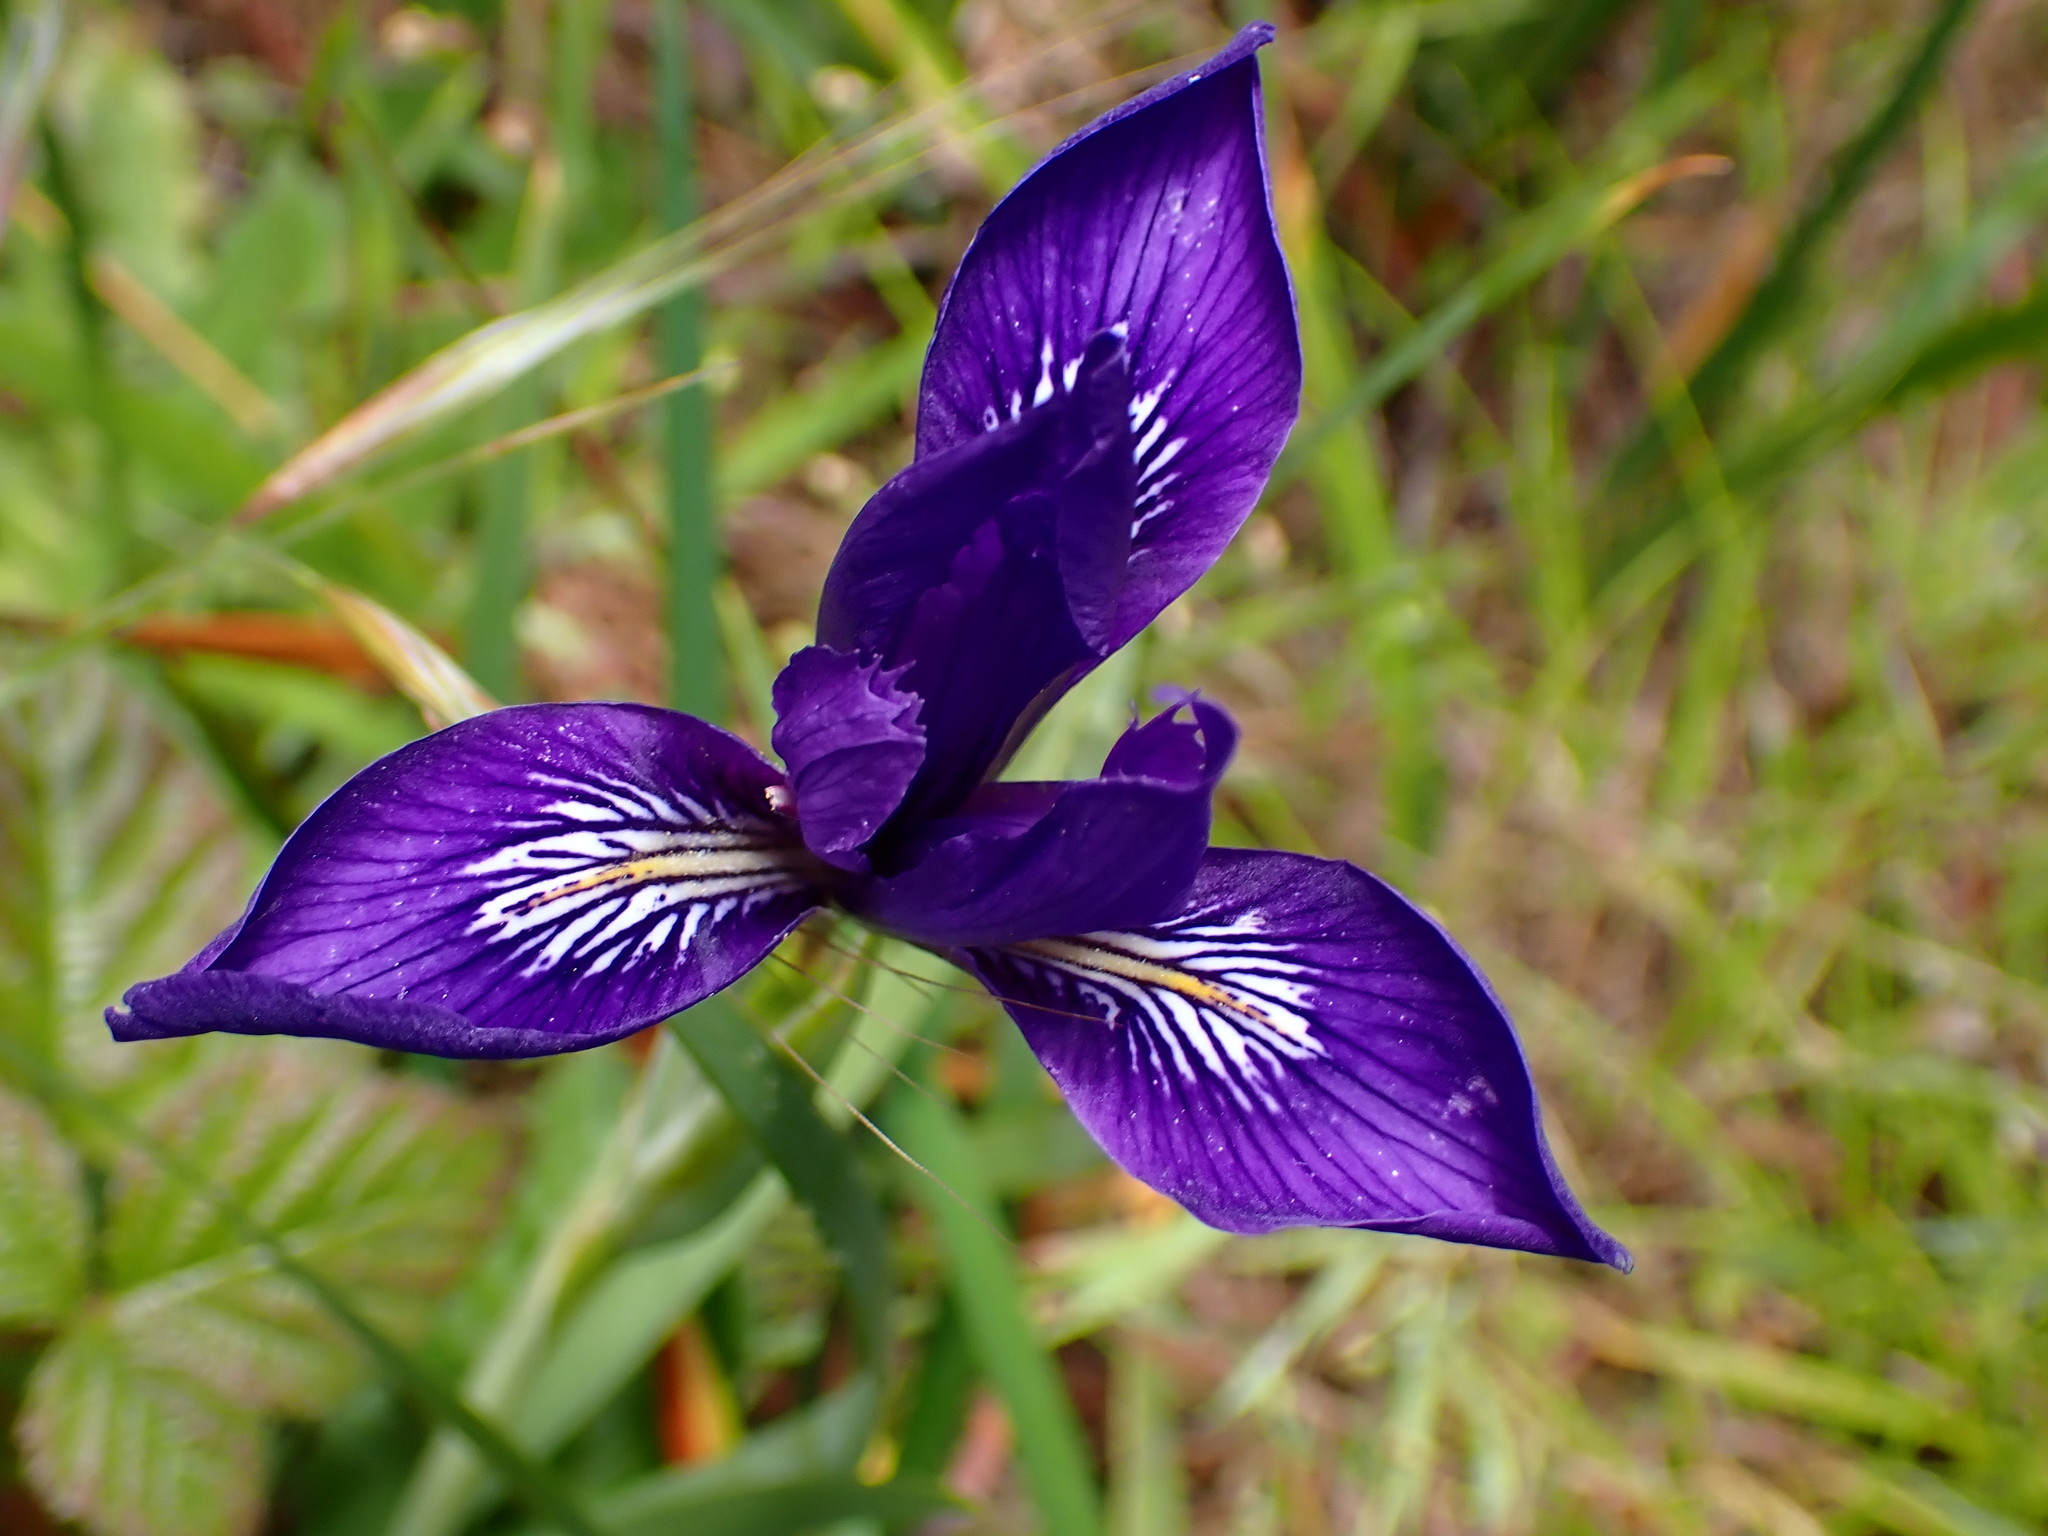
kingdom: Plantae
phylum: Tracheophyta
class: Liliopsida
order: Asparagales
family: Iridaceae
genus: Iris
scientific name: Iris douglasiana
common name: Marin iris
